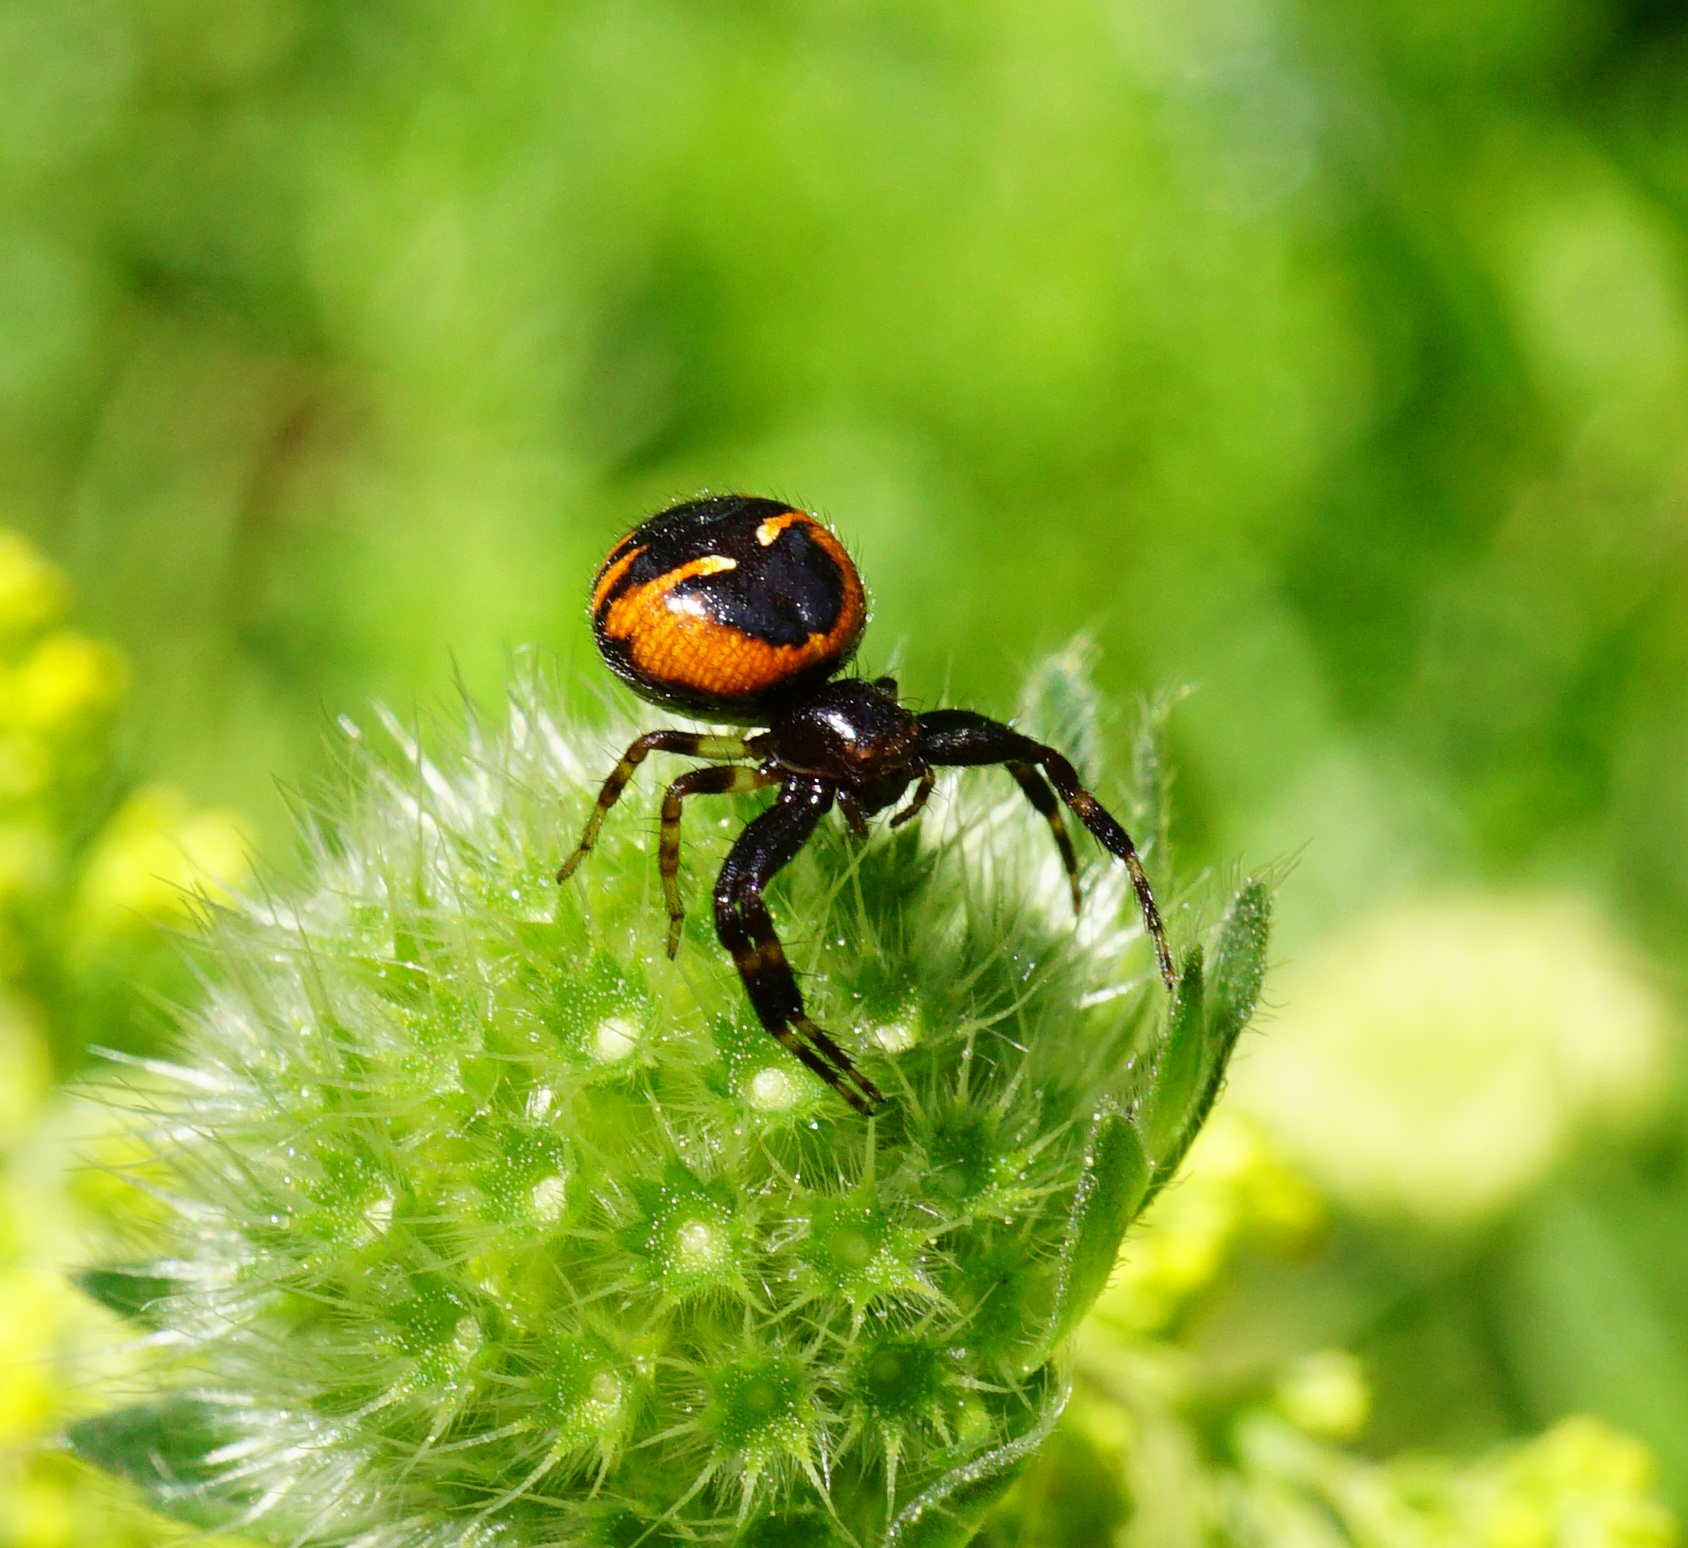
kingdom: Animalia
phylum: Arthropoda
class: Arachnida
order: Araneae
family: Thomisidae
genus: Synema
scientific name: Synema globosum
